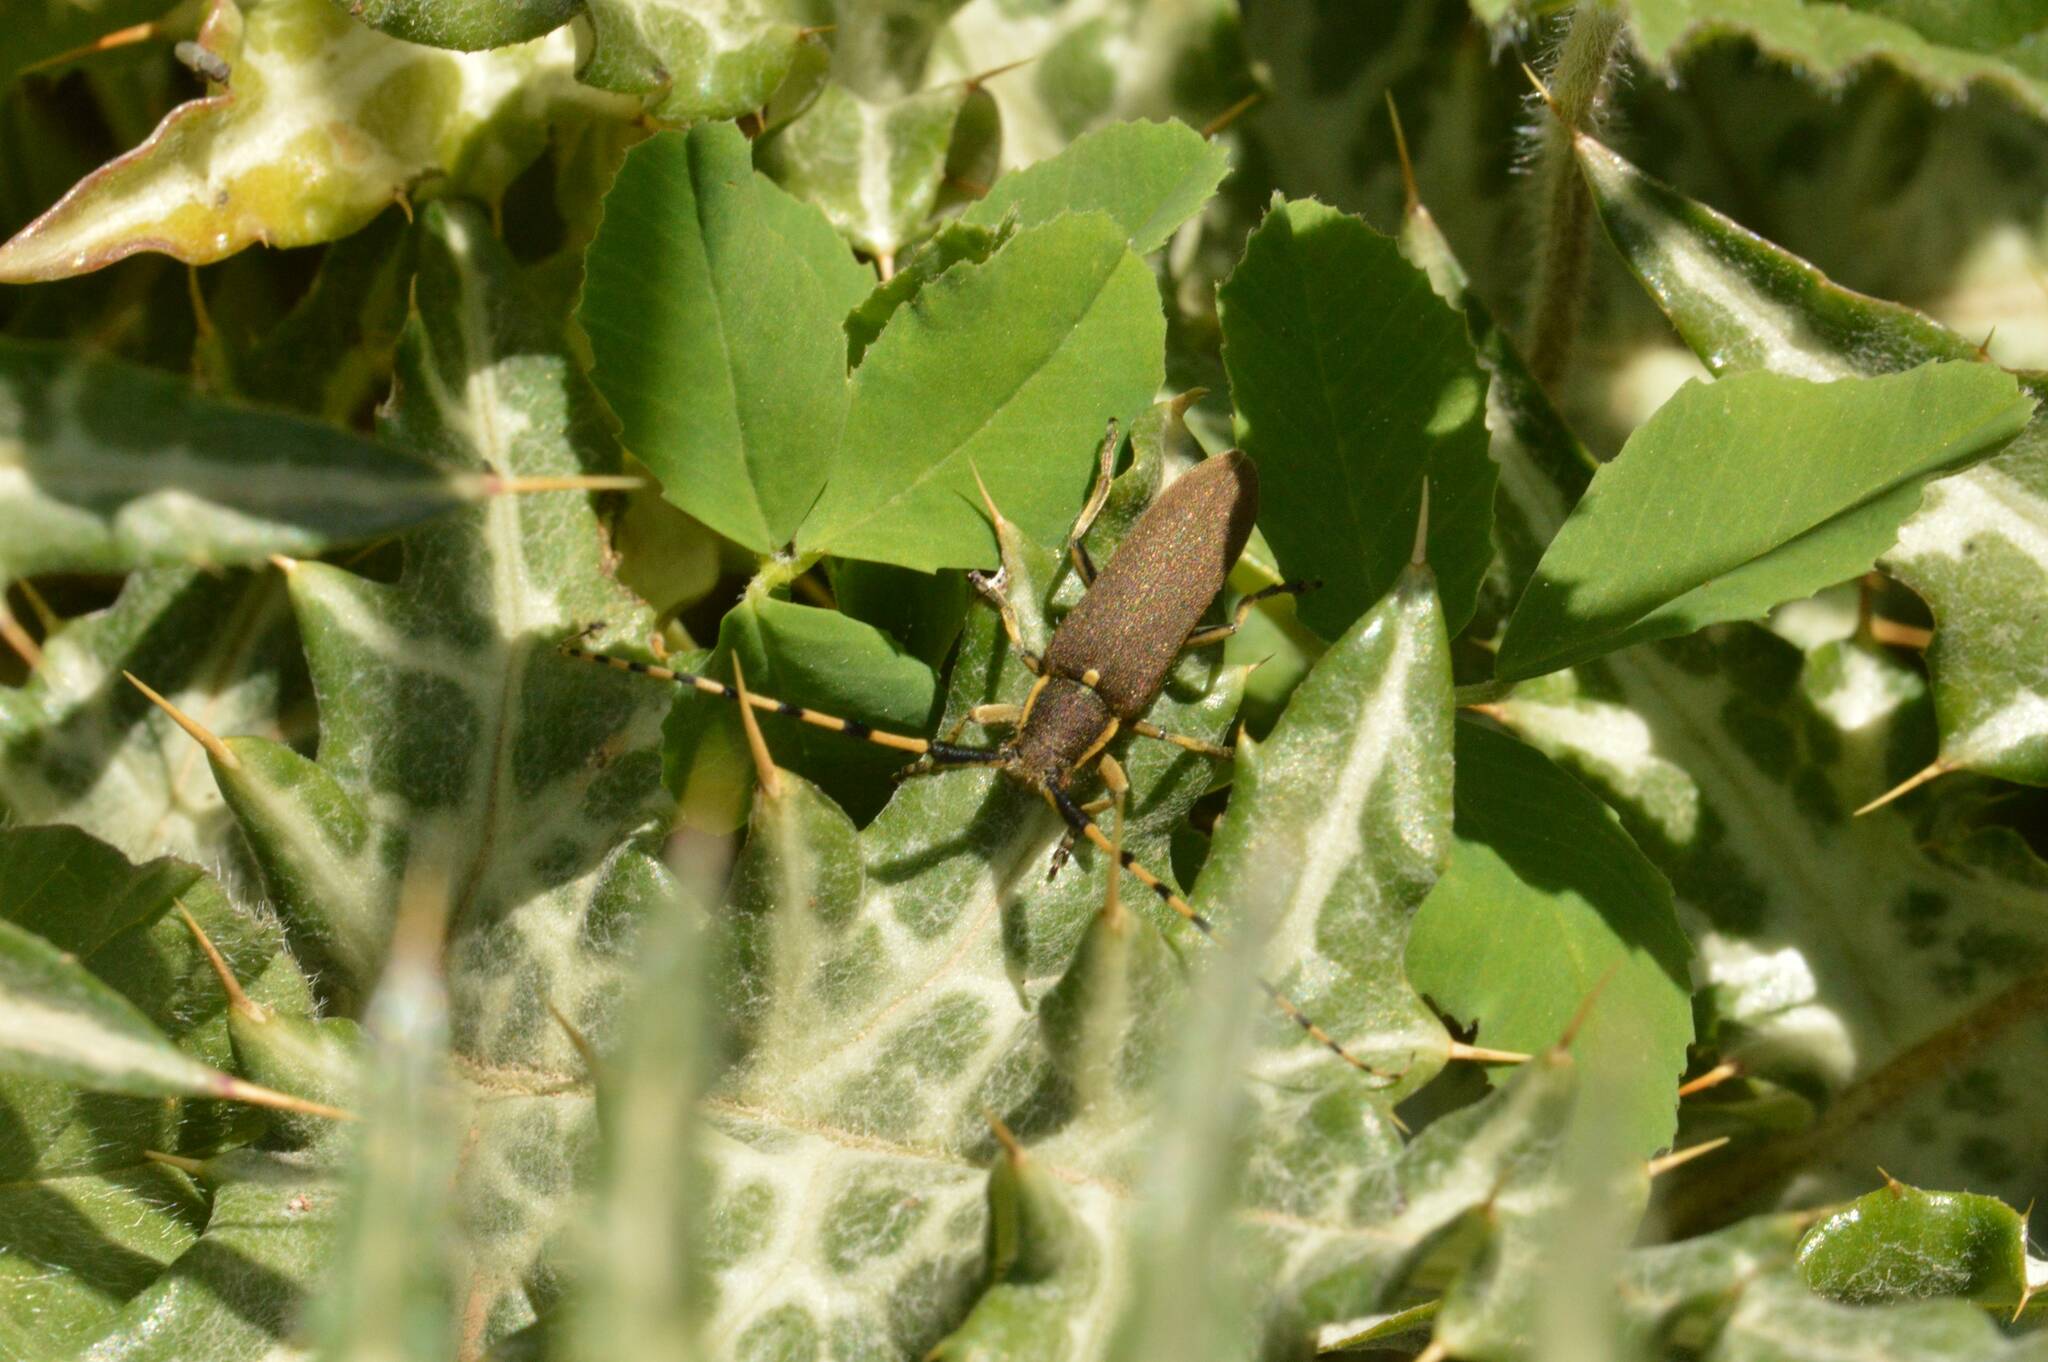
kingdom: Animalia
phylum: Arthropoda
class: Insecta
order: Coleoptera
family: Cerambycidae
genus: Agapanthia
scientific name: Agapanthia annularis
